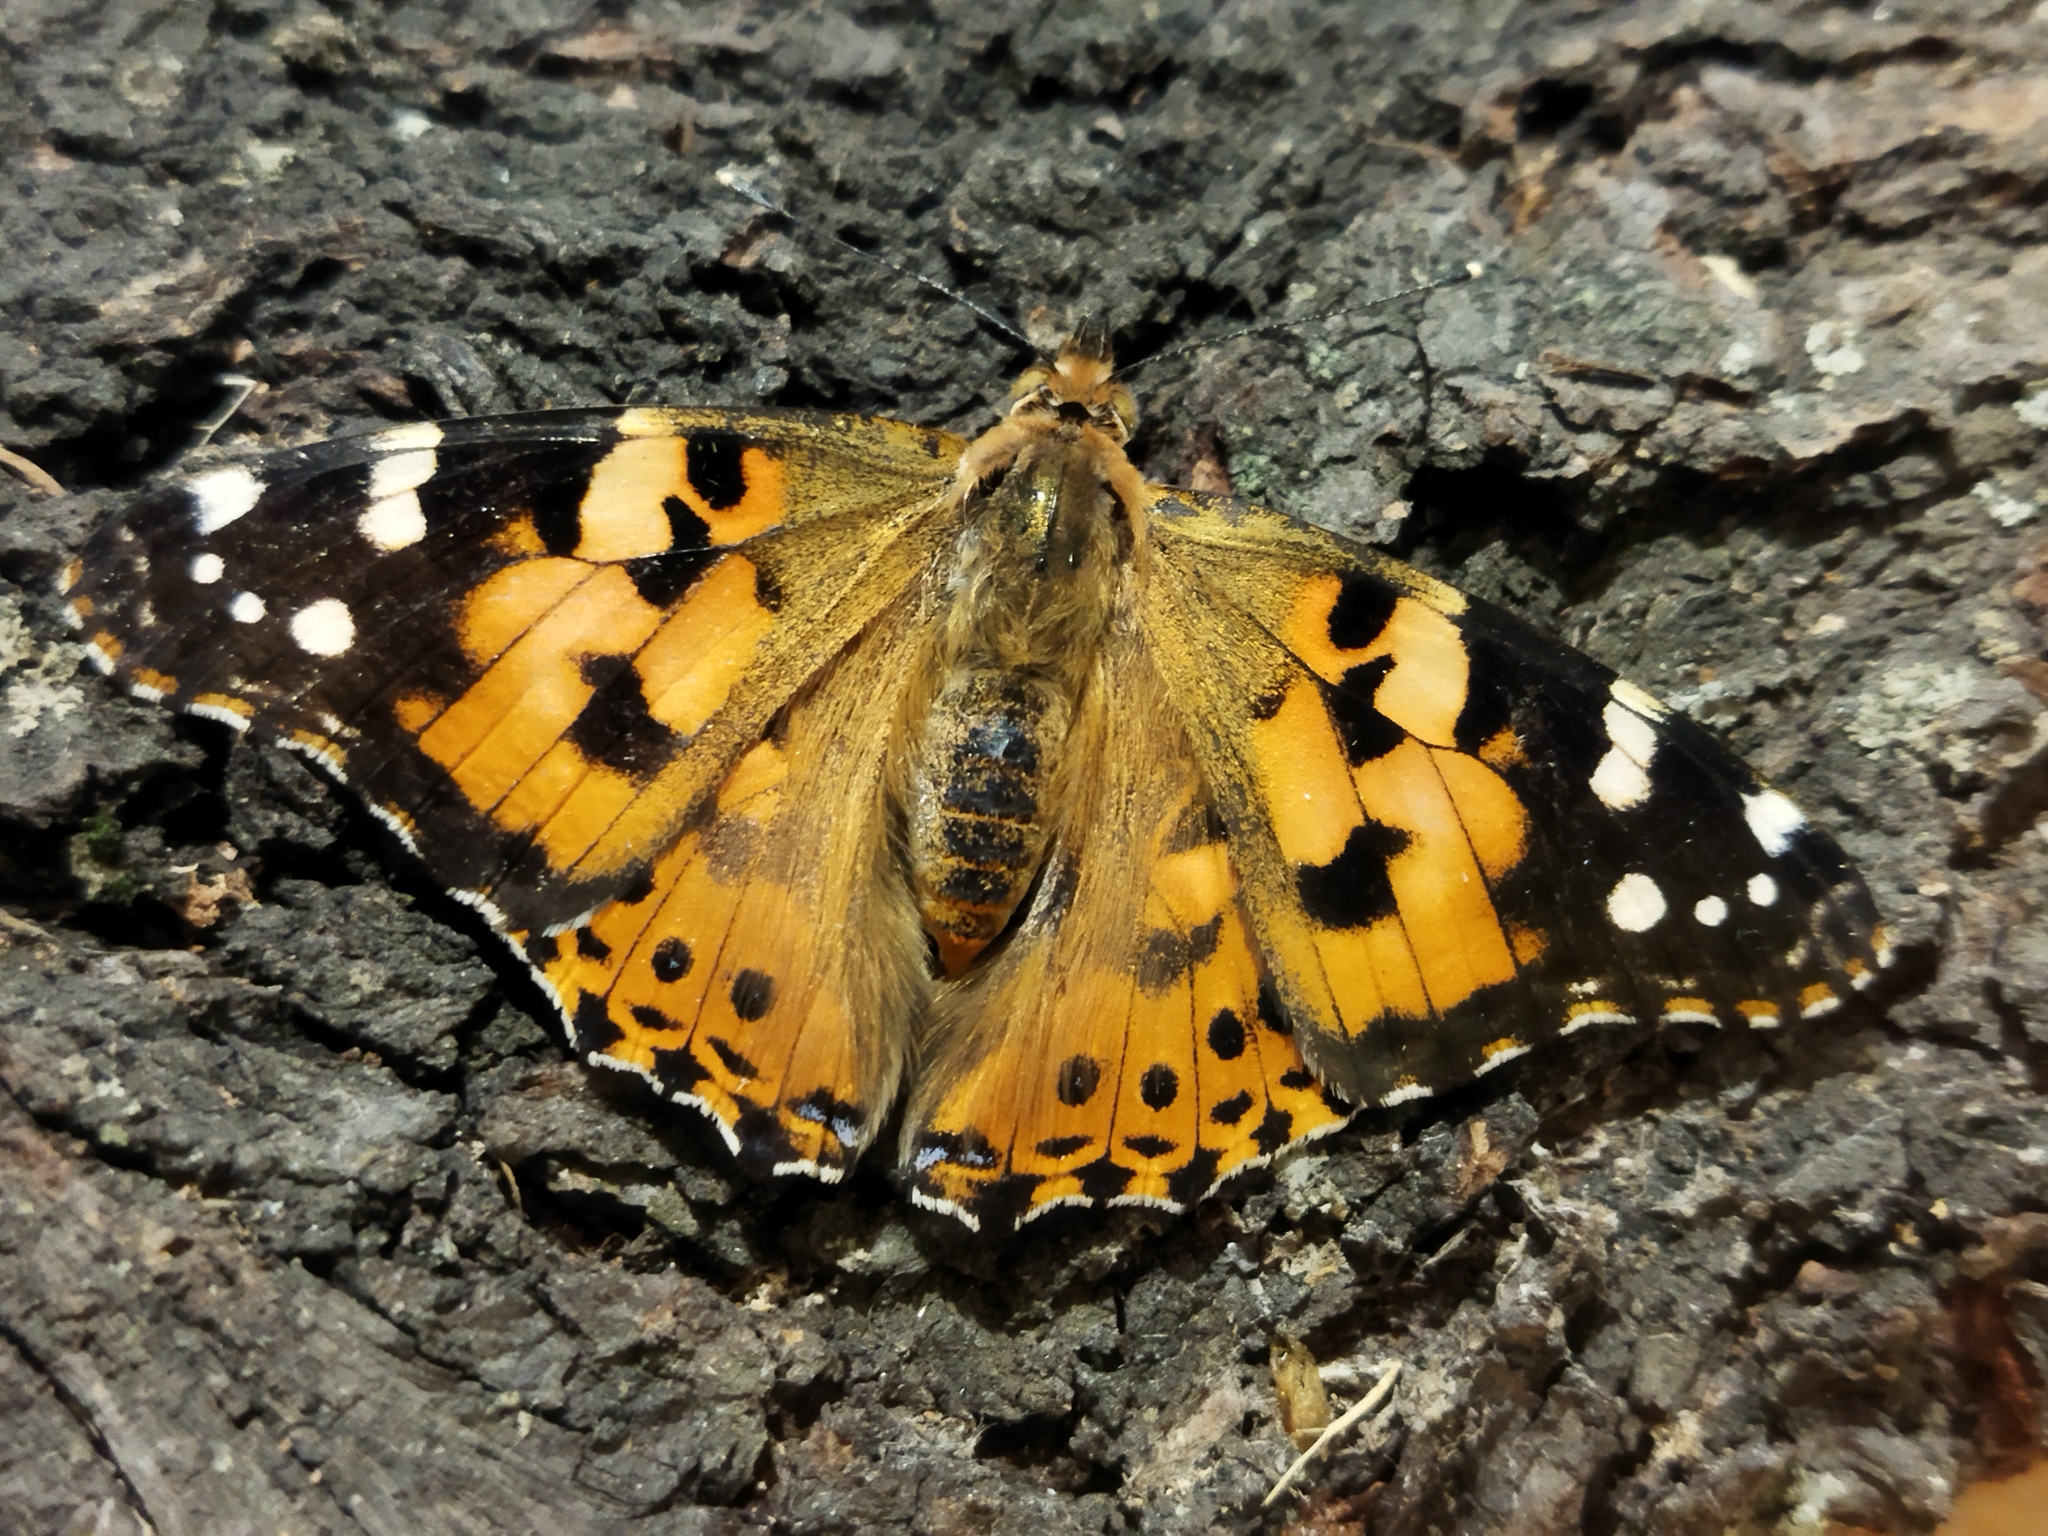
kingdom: Animalia
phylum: Arthropoda
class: Insecta
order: Lepidoptera
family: Nymphalidae
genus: Vanessa
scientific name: Vanessa cardui
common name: Painted lady
